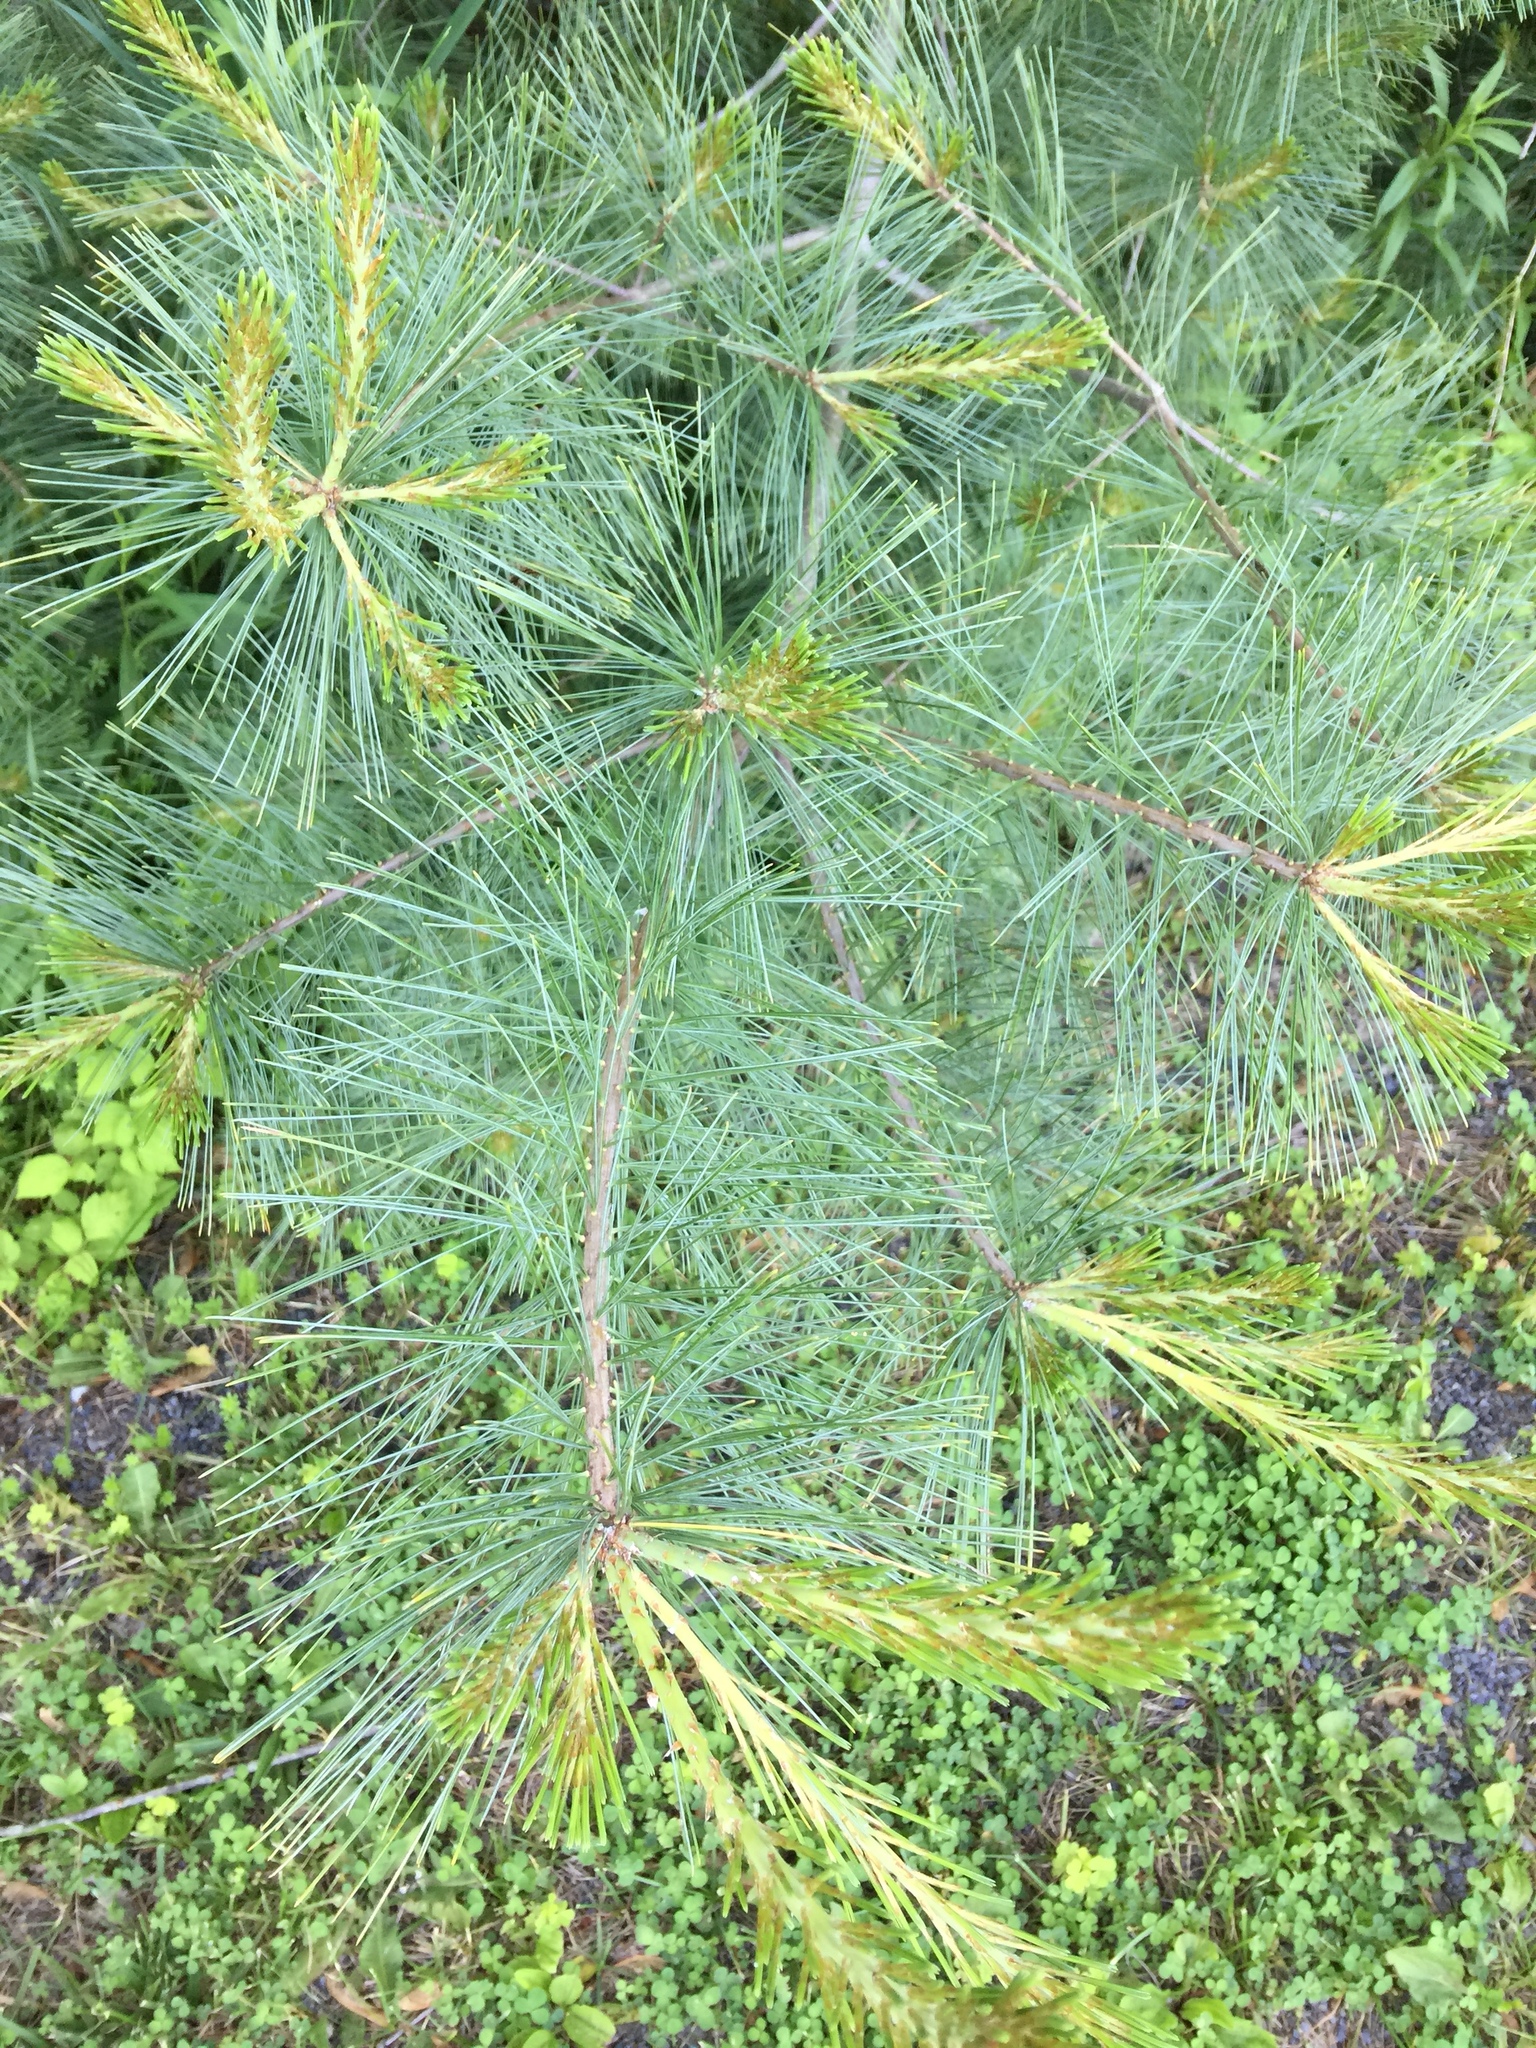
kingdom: Plantae
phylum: Tracheophyta
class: Pinopsida
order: Pinales
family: Pinaceae
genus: Pinus
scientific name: Pinus strobus
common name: Weymouth pine
